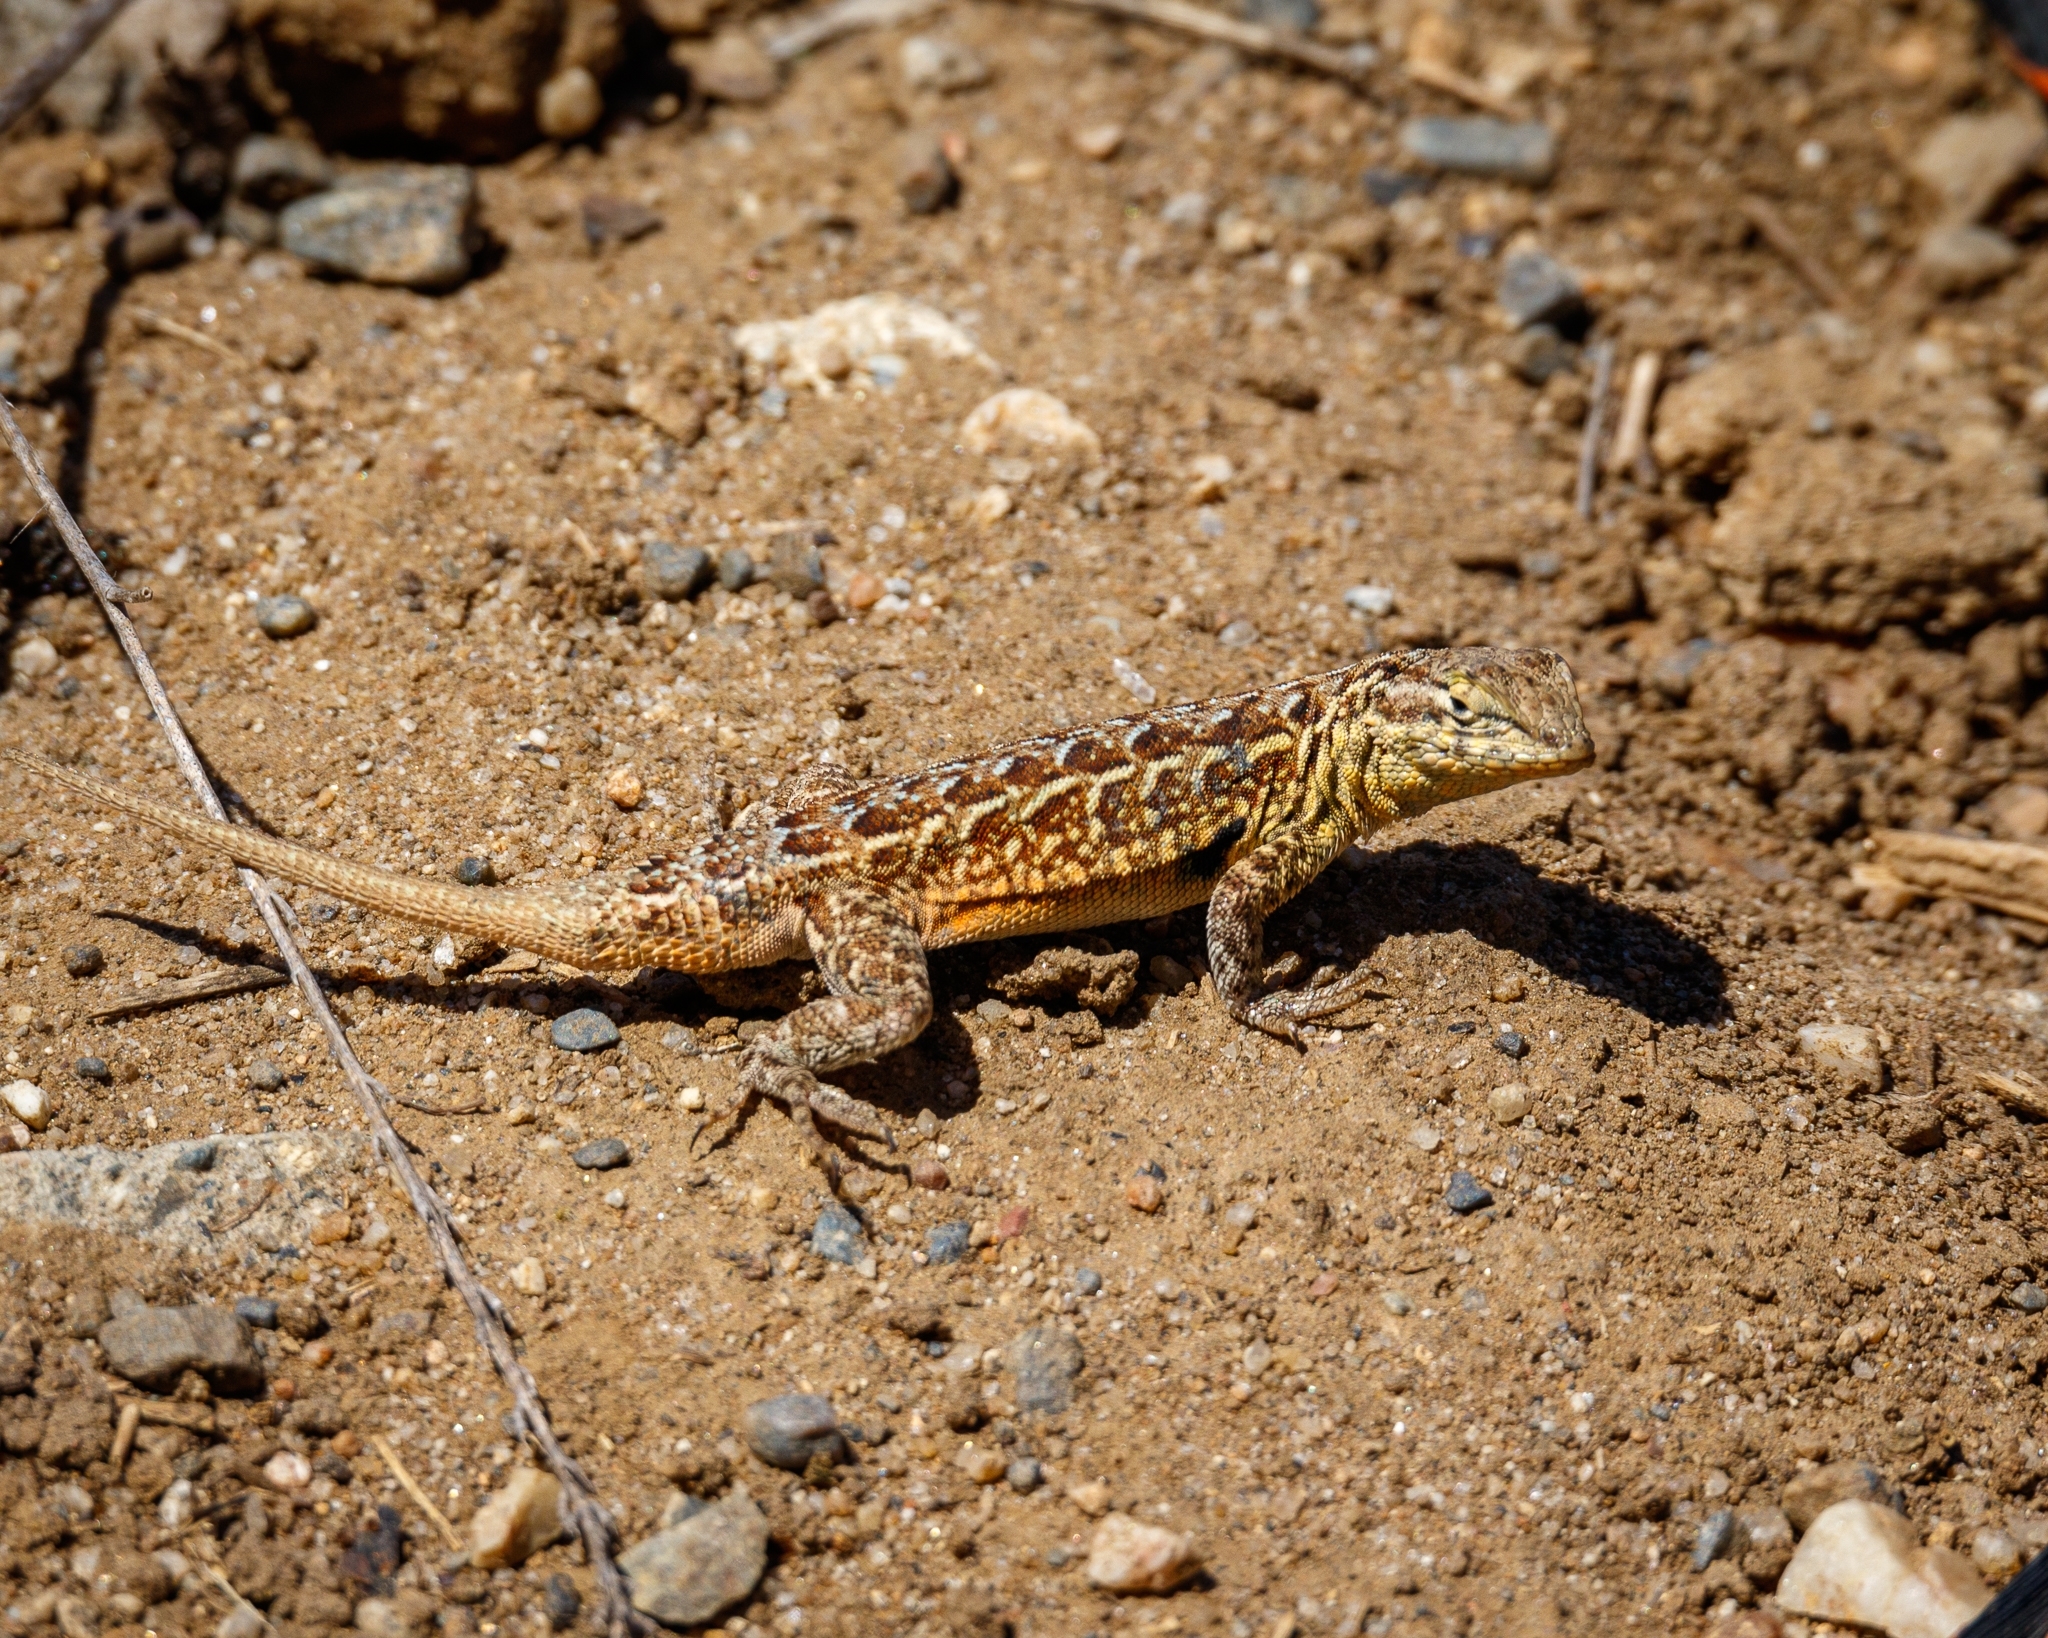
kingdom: Animalia
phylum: Chordata
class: Squamata
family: Phrynosomatidae
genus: Uta
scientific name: Uta stansburiana
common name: Side-blotched lizard
